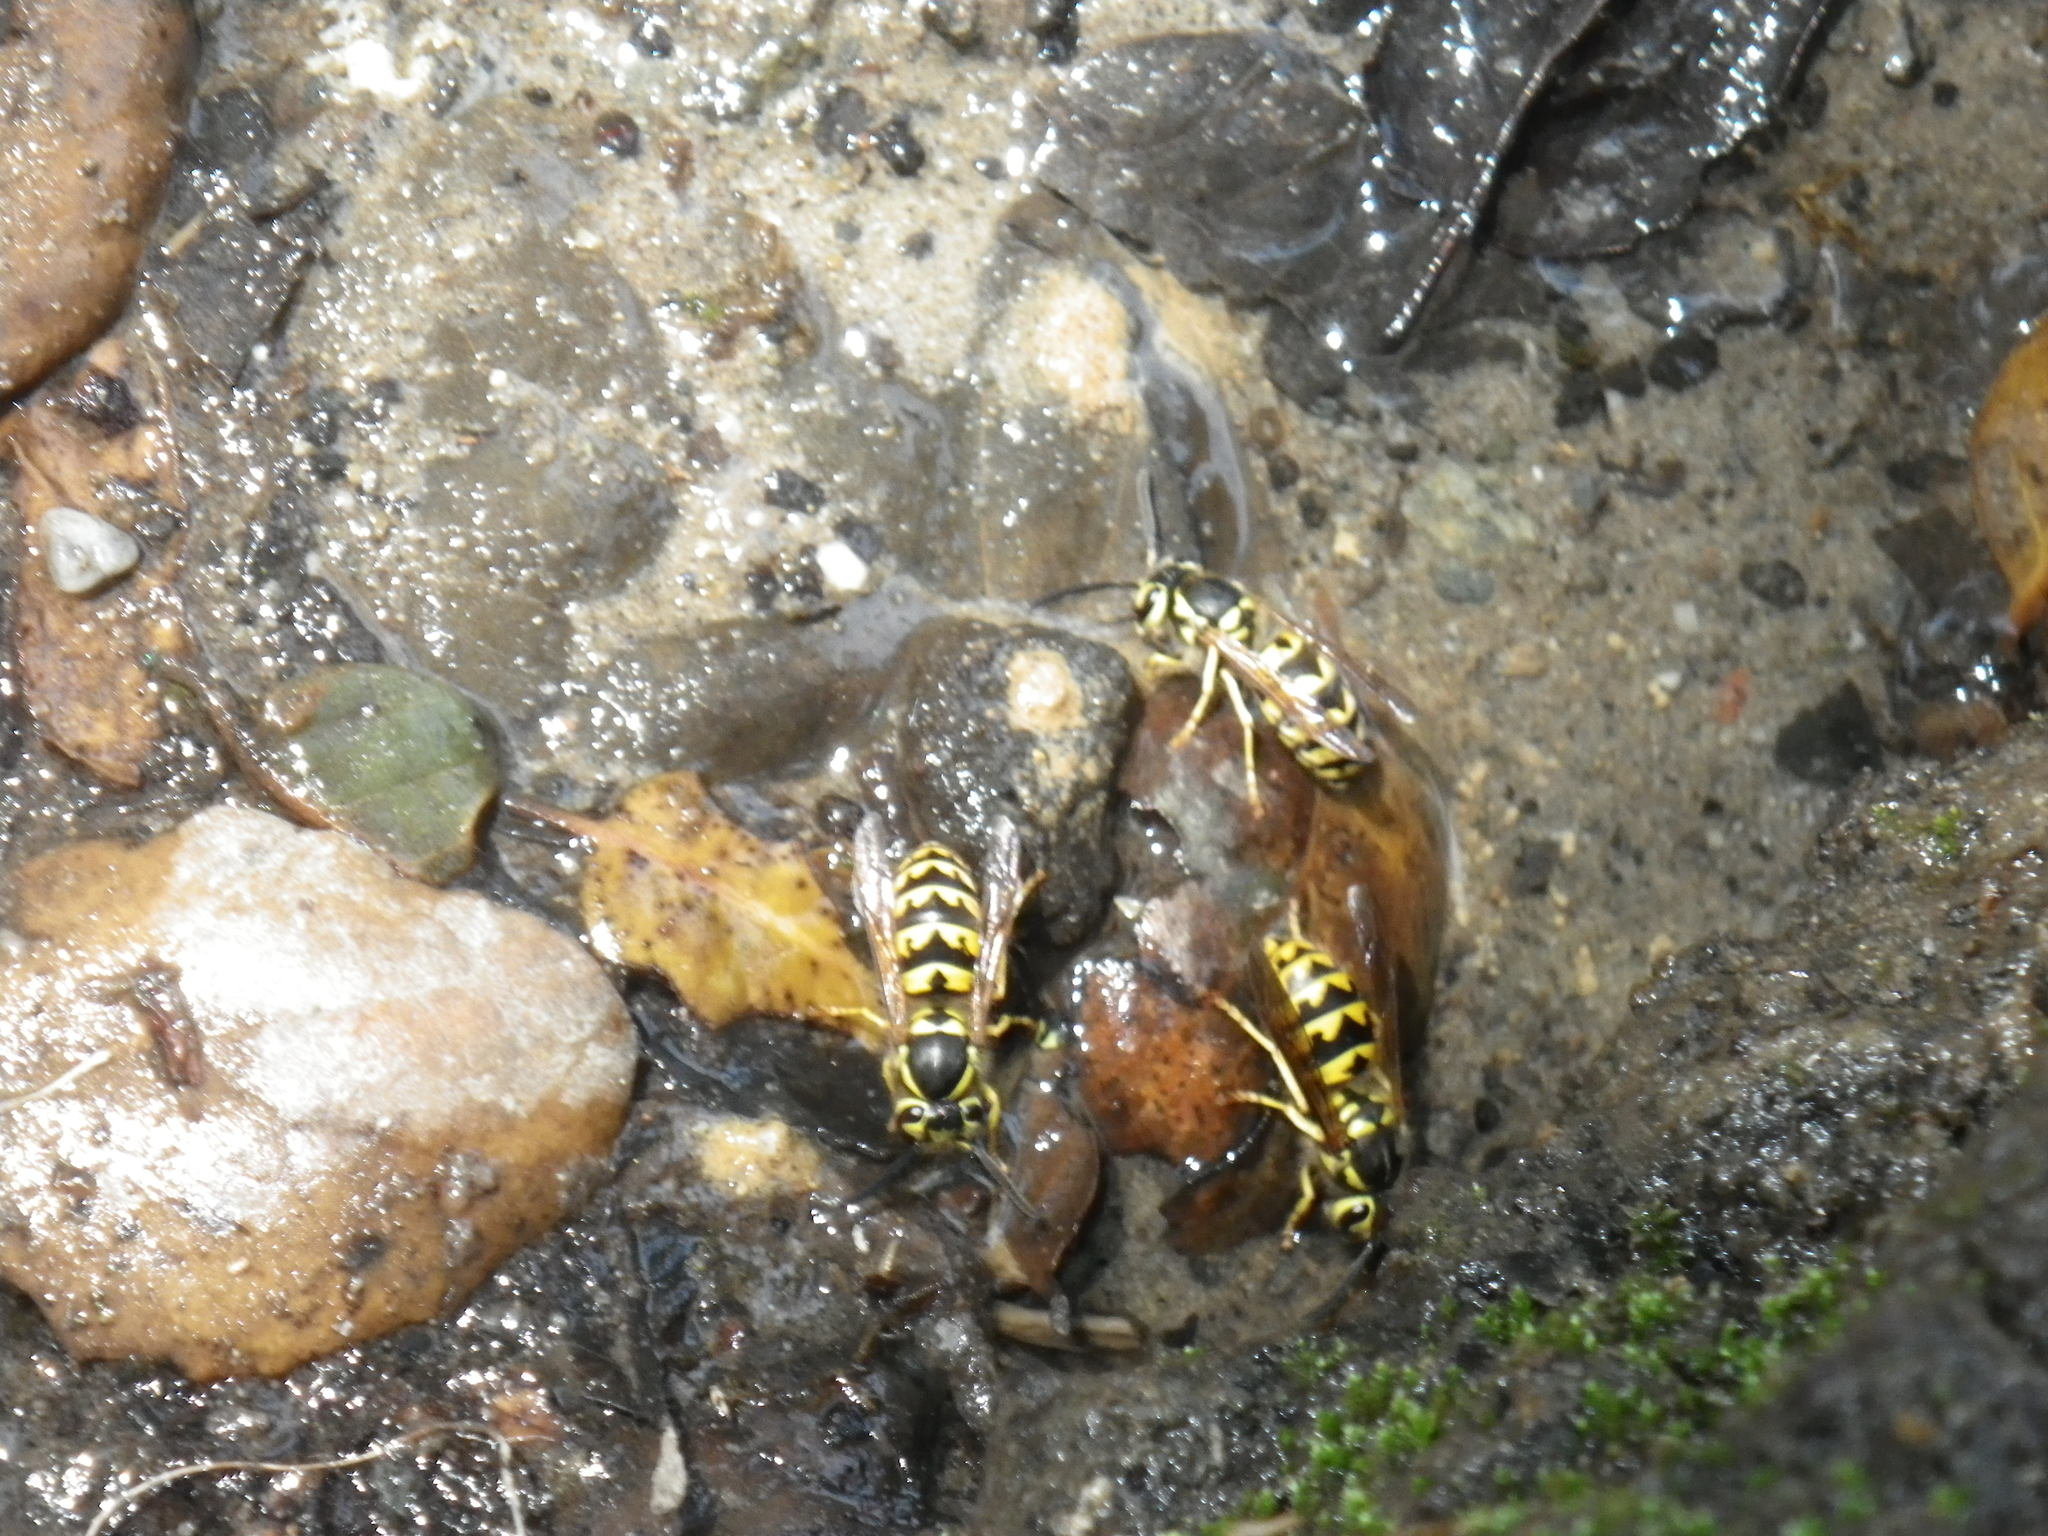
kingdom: Animalia
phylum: Arthropoda
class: Insecta
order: Hymenoptera
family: Vespidae
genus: Vespula
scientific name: Vespula pensylvanica
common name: Western yellowjacket
